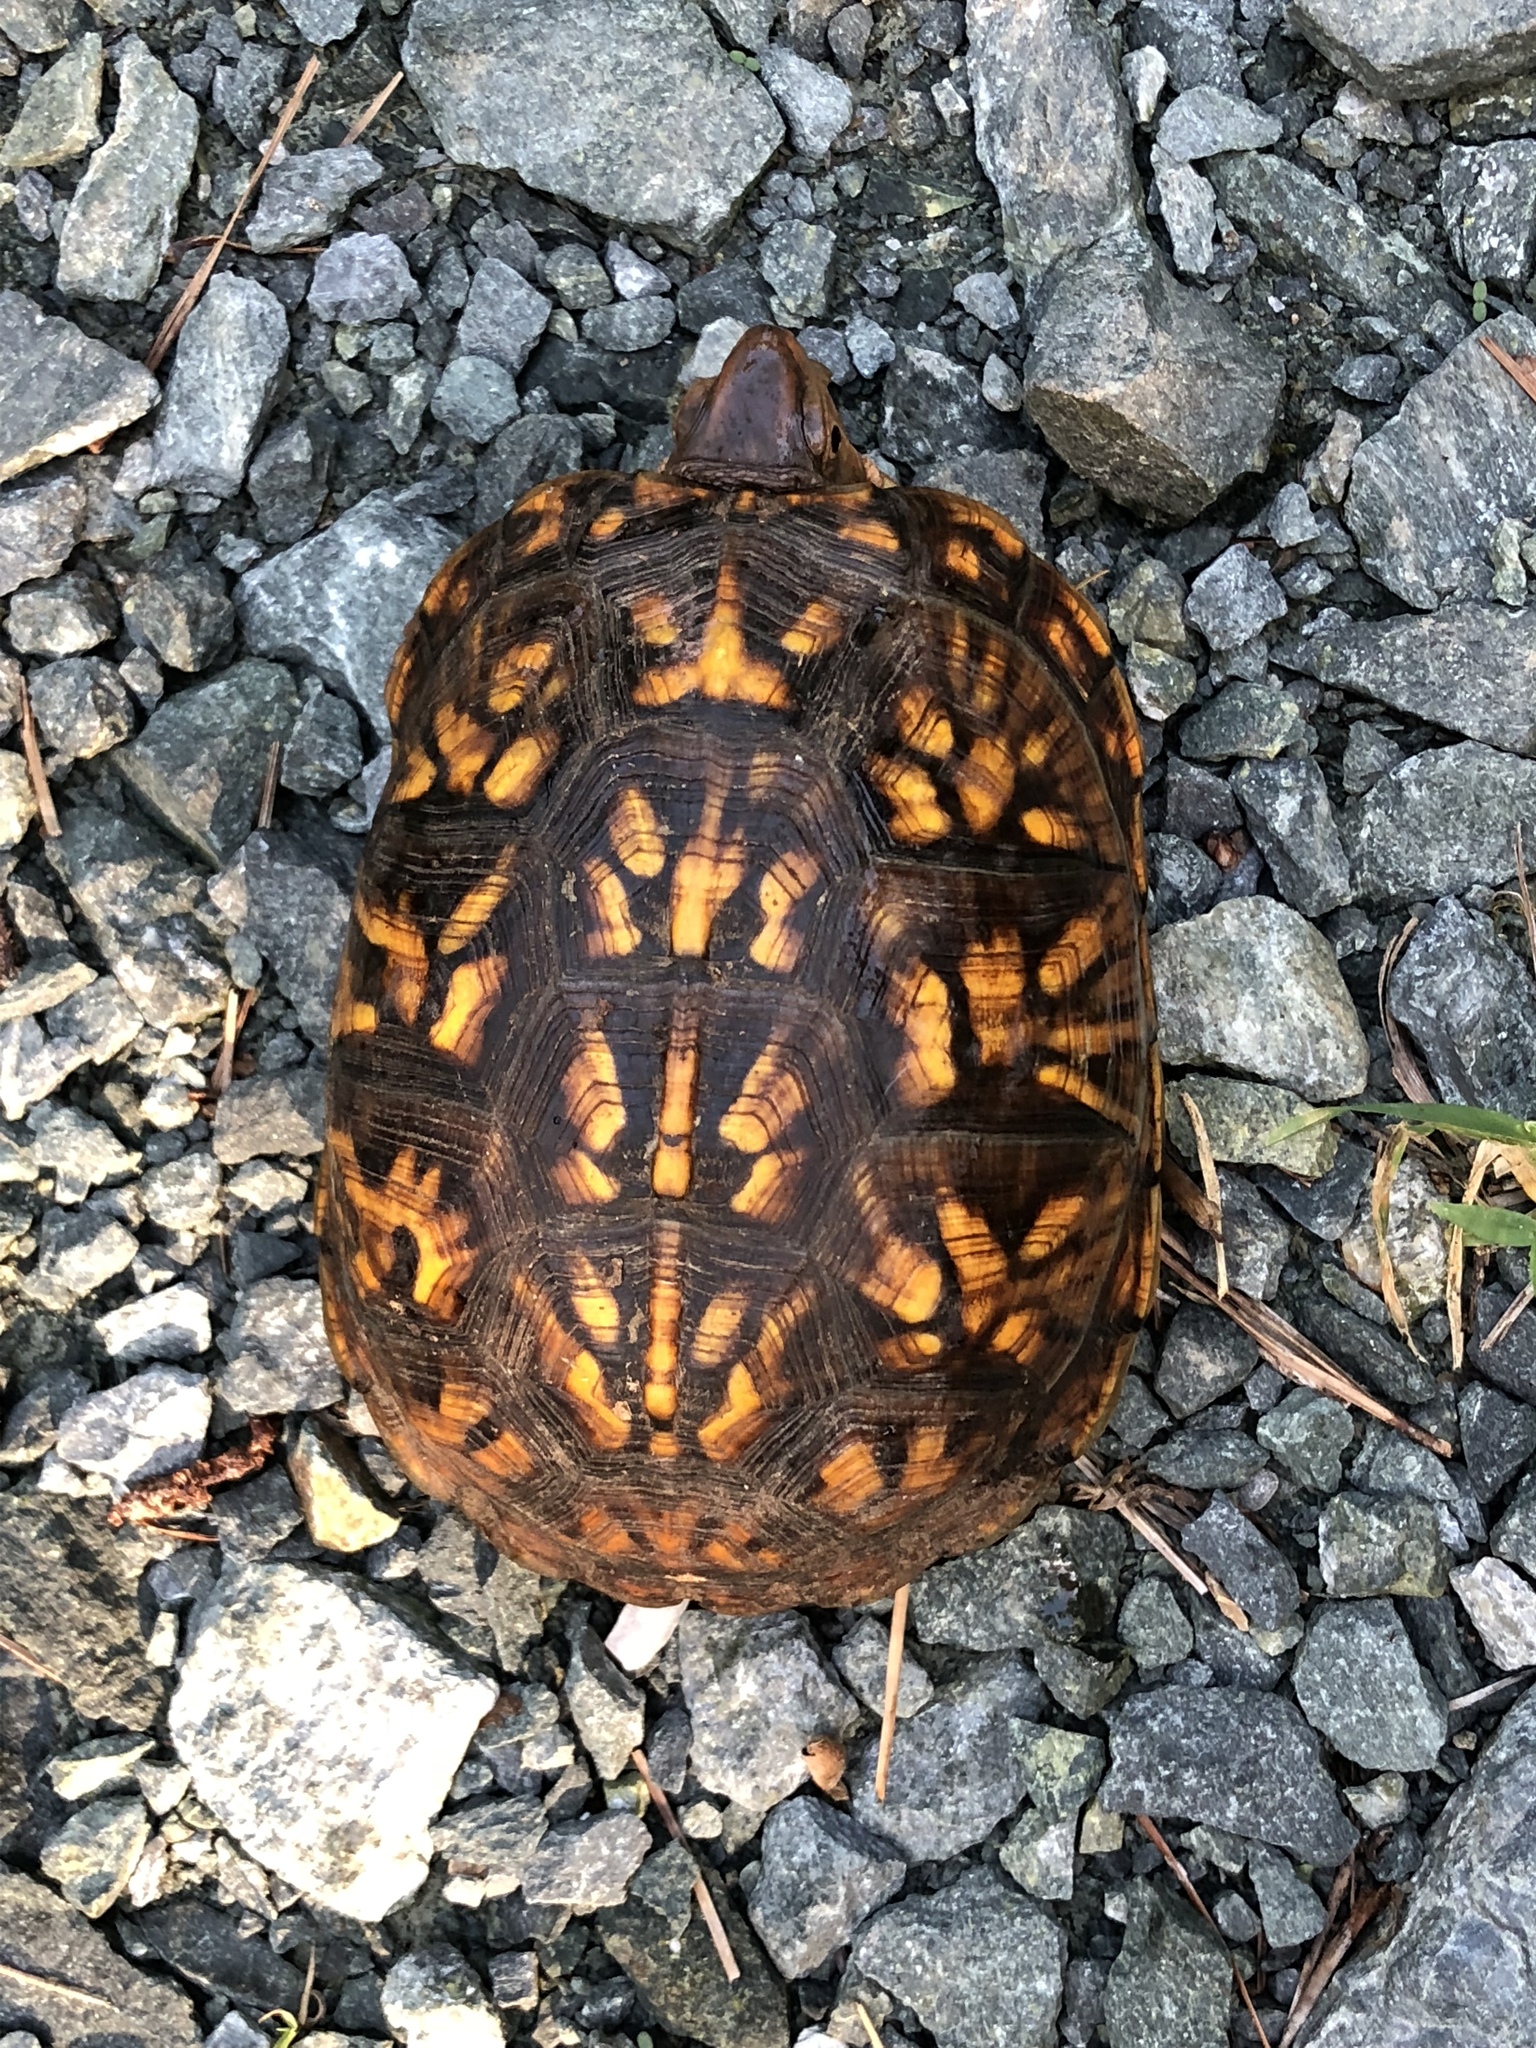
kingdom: Animalia
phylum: Chordata
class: Testudines
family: Emydidae
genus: Terrapene
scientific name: Terrapene carolina
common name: Common box turtle
